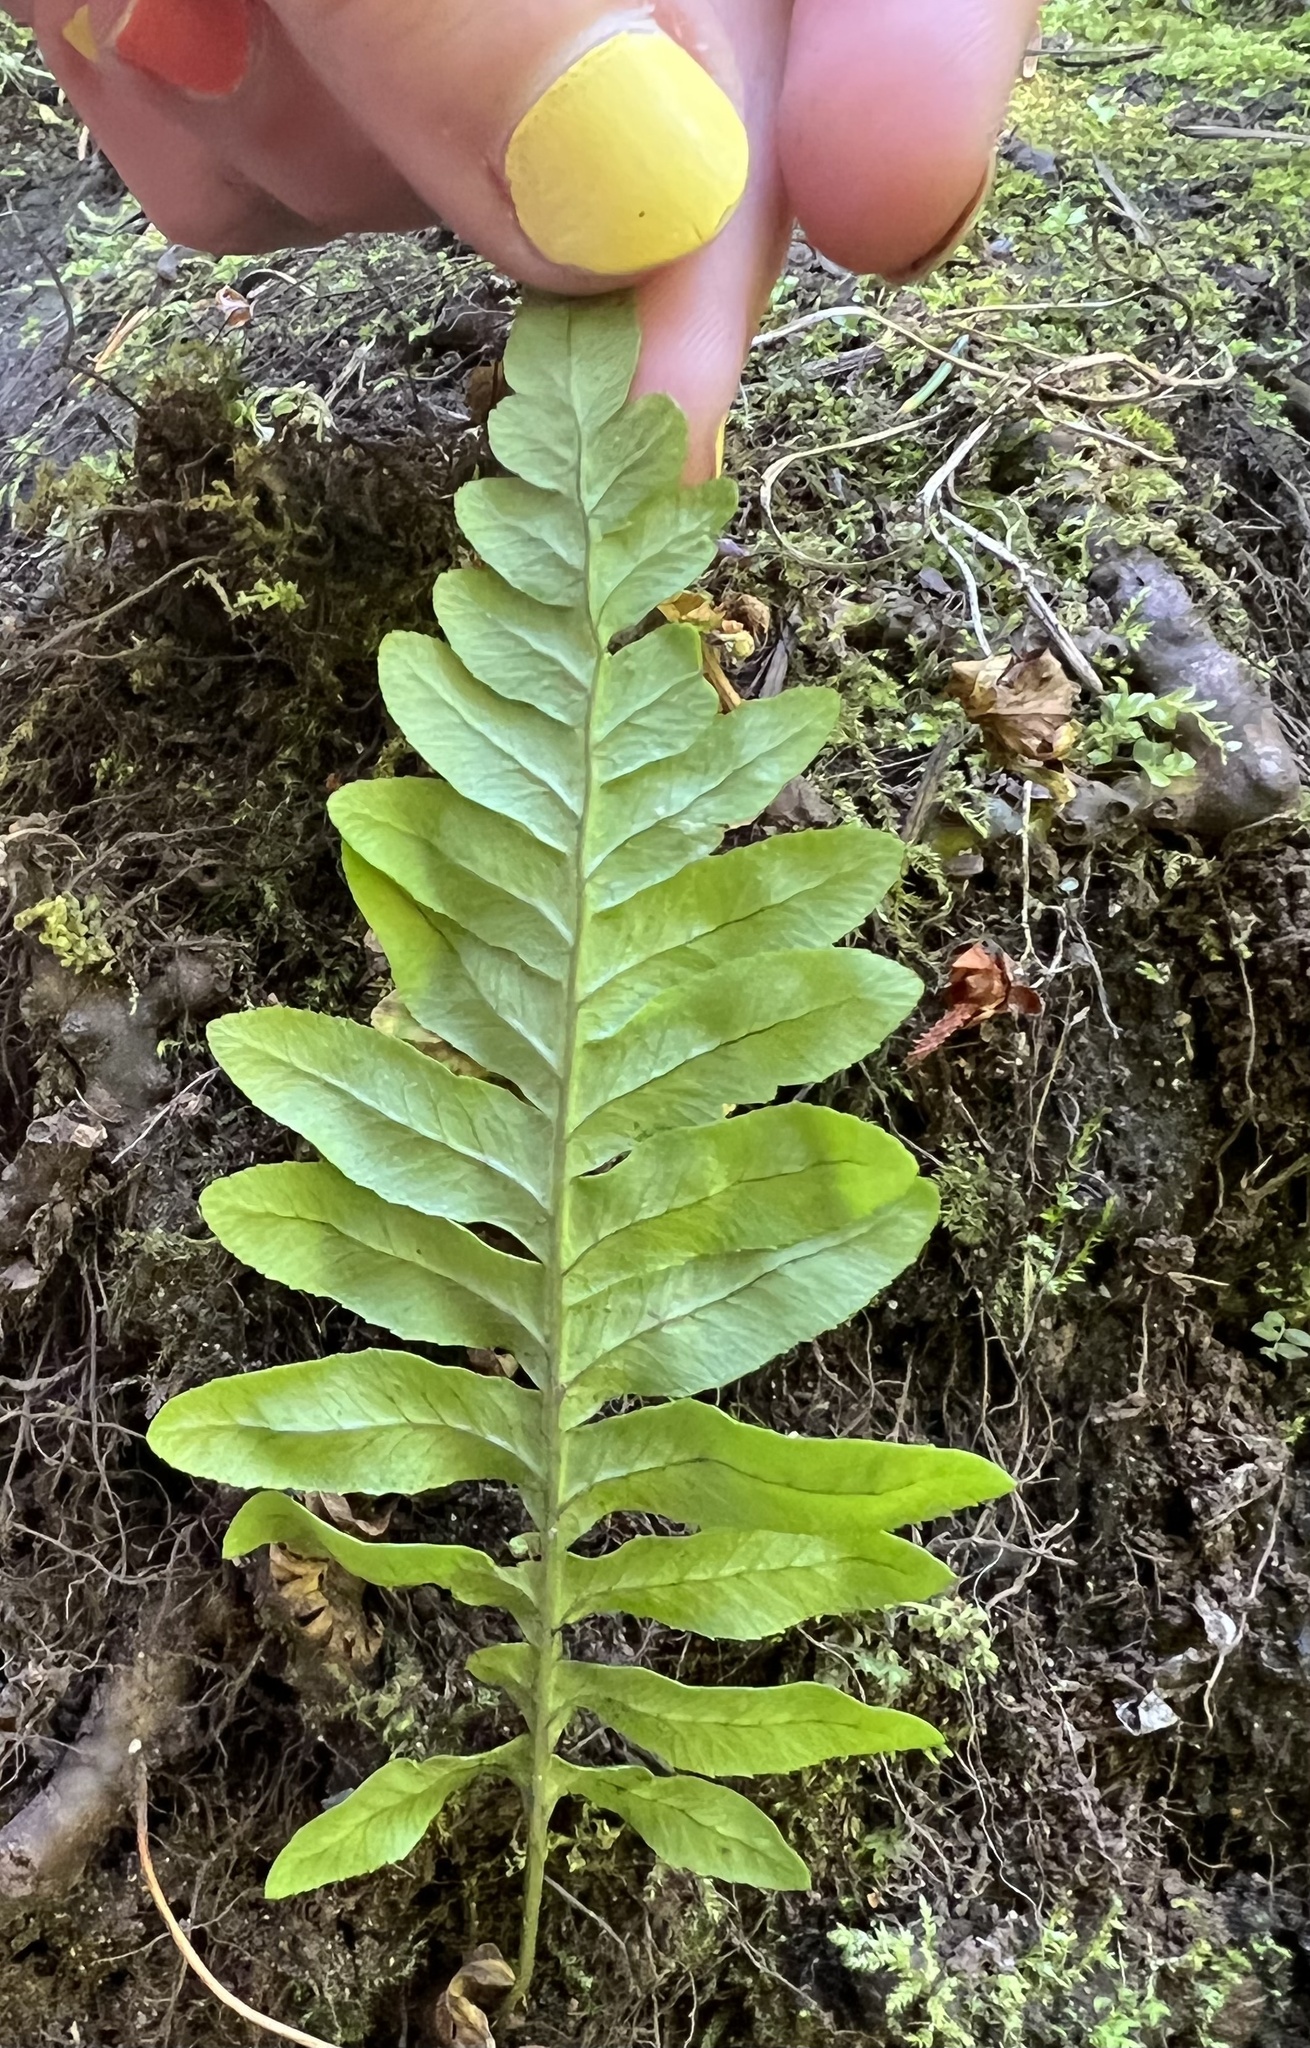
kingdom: Plantae
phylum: Tracheophyta
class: Polypodiopsida
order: Polypodiales
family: Polypodiaceae
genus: Polypodium
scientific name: Polypodium glycyrrhiza
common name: Licorice fern
